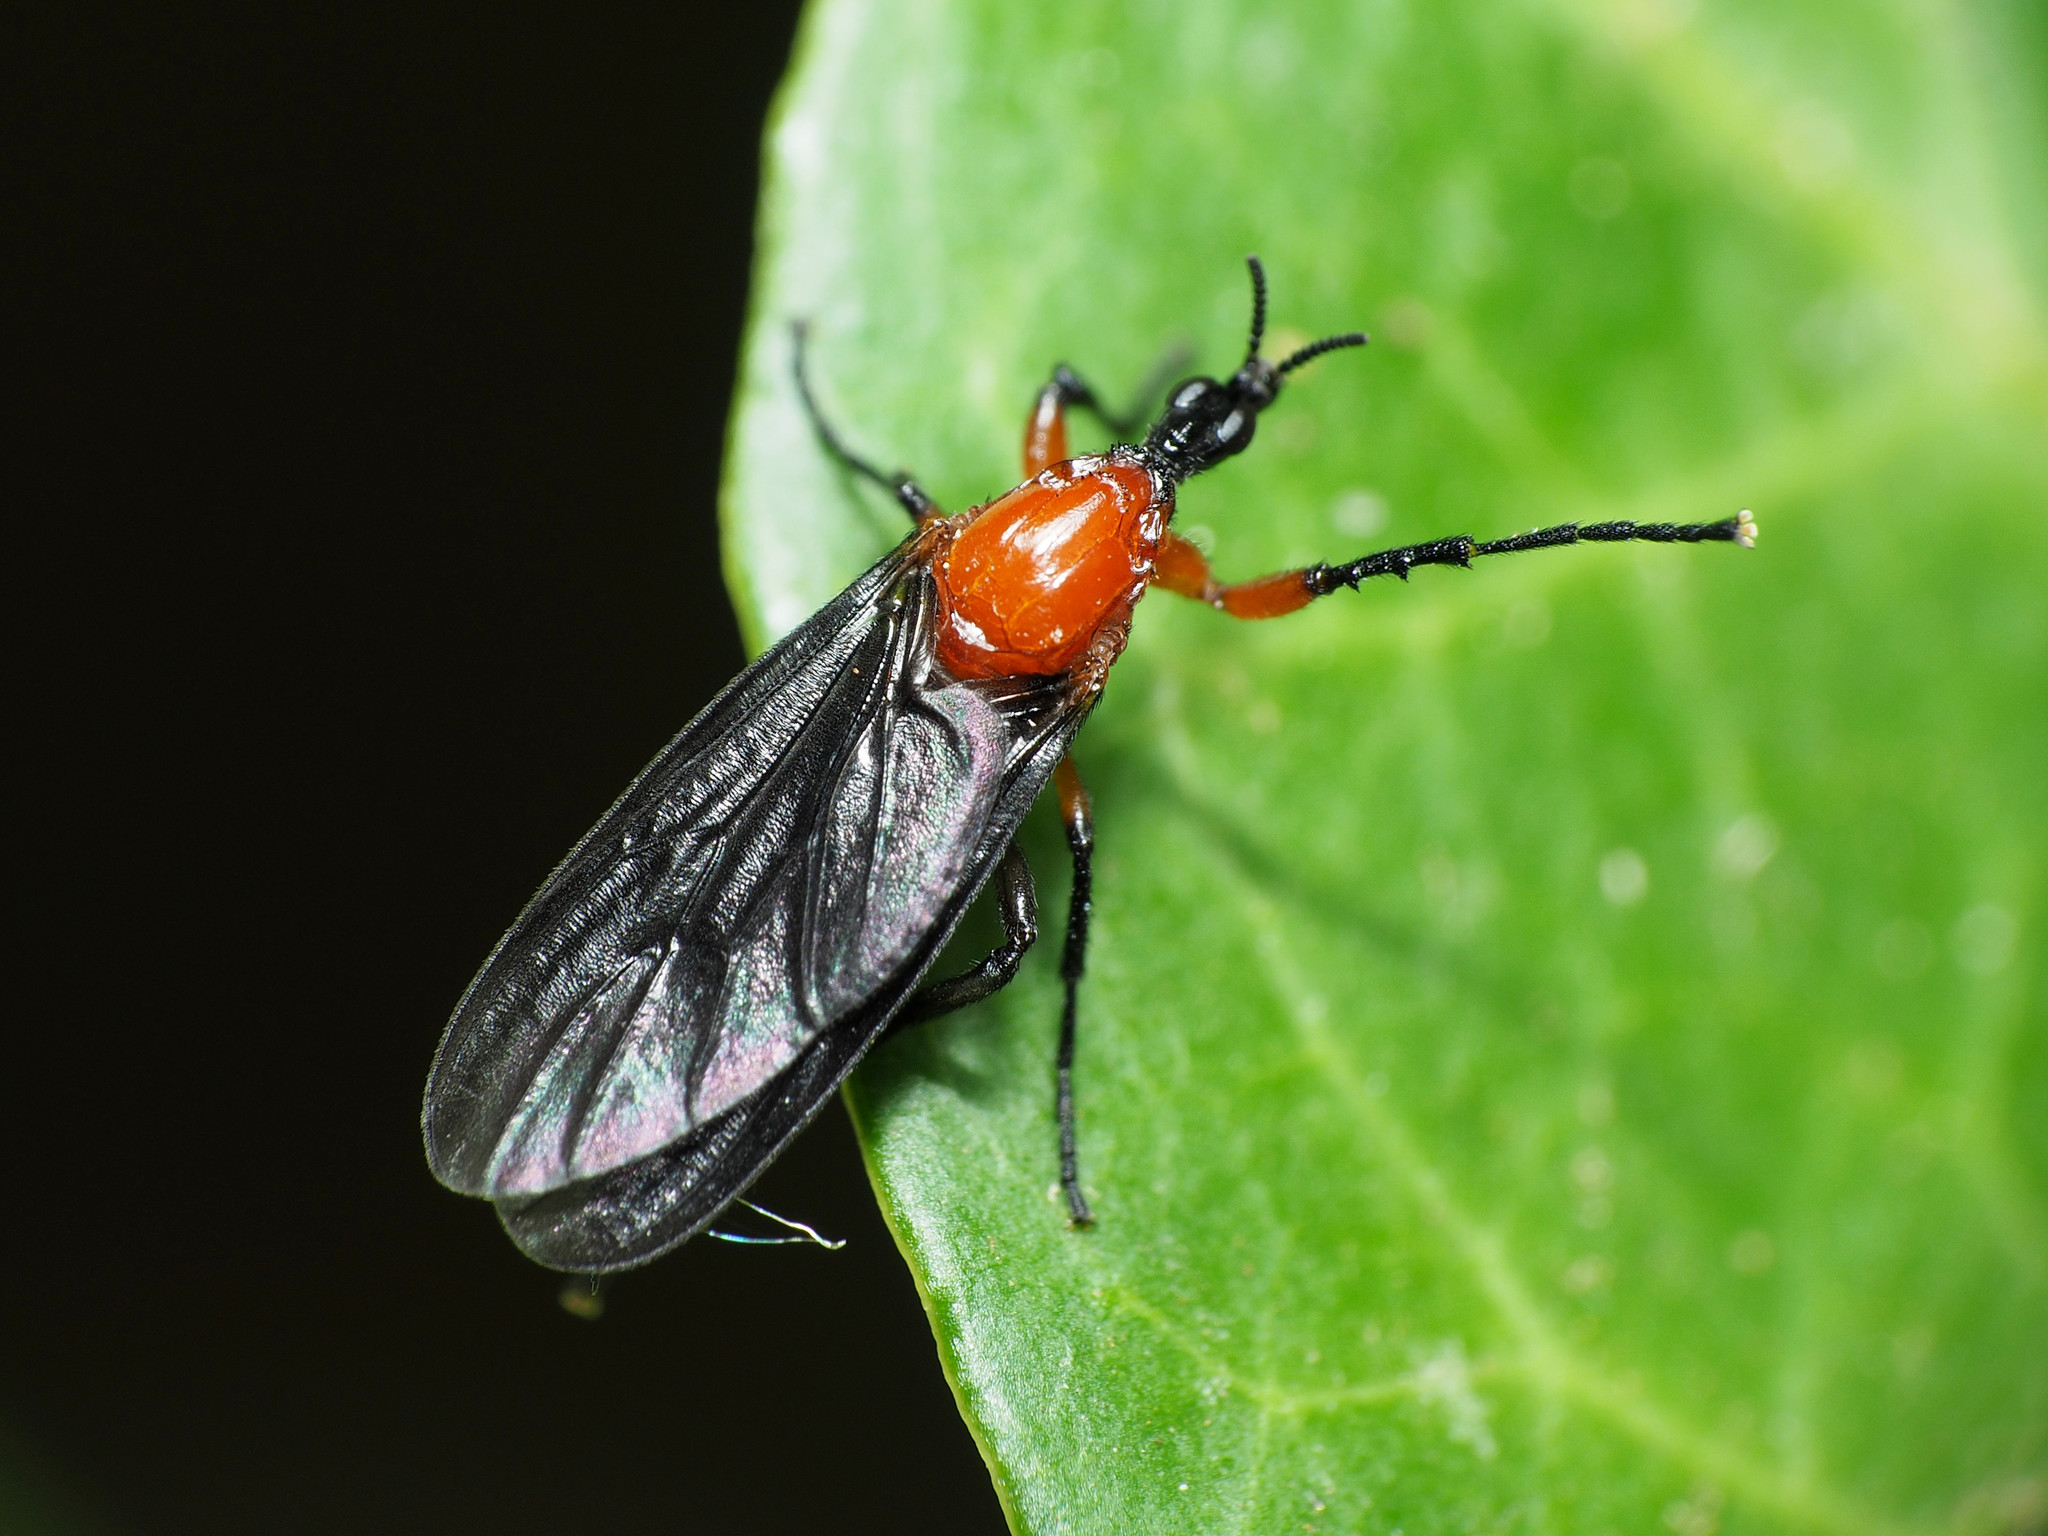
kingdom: Animalia
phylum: Arthropoda
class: Insecta
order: Diptera
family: Bibionidae
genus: Dilophus
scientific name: Dilophus spinipes
